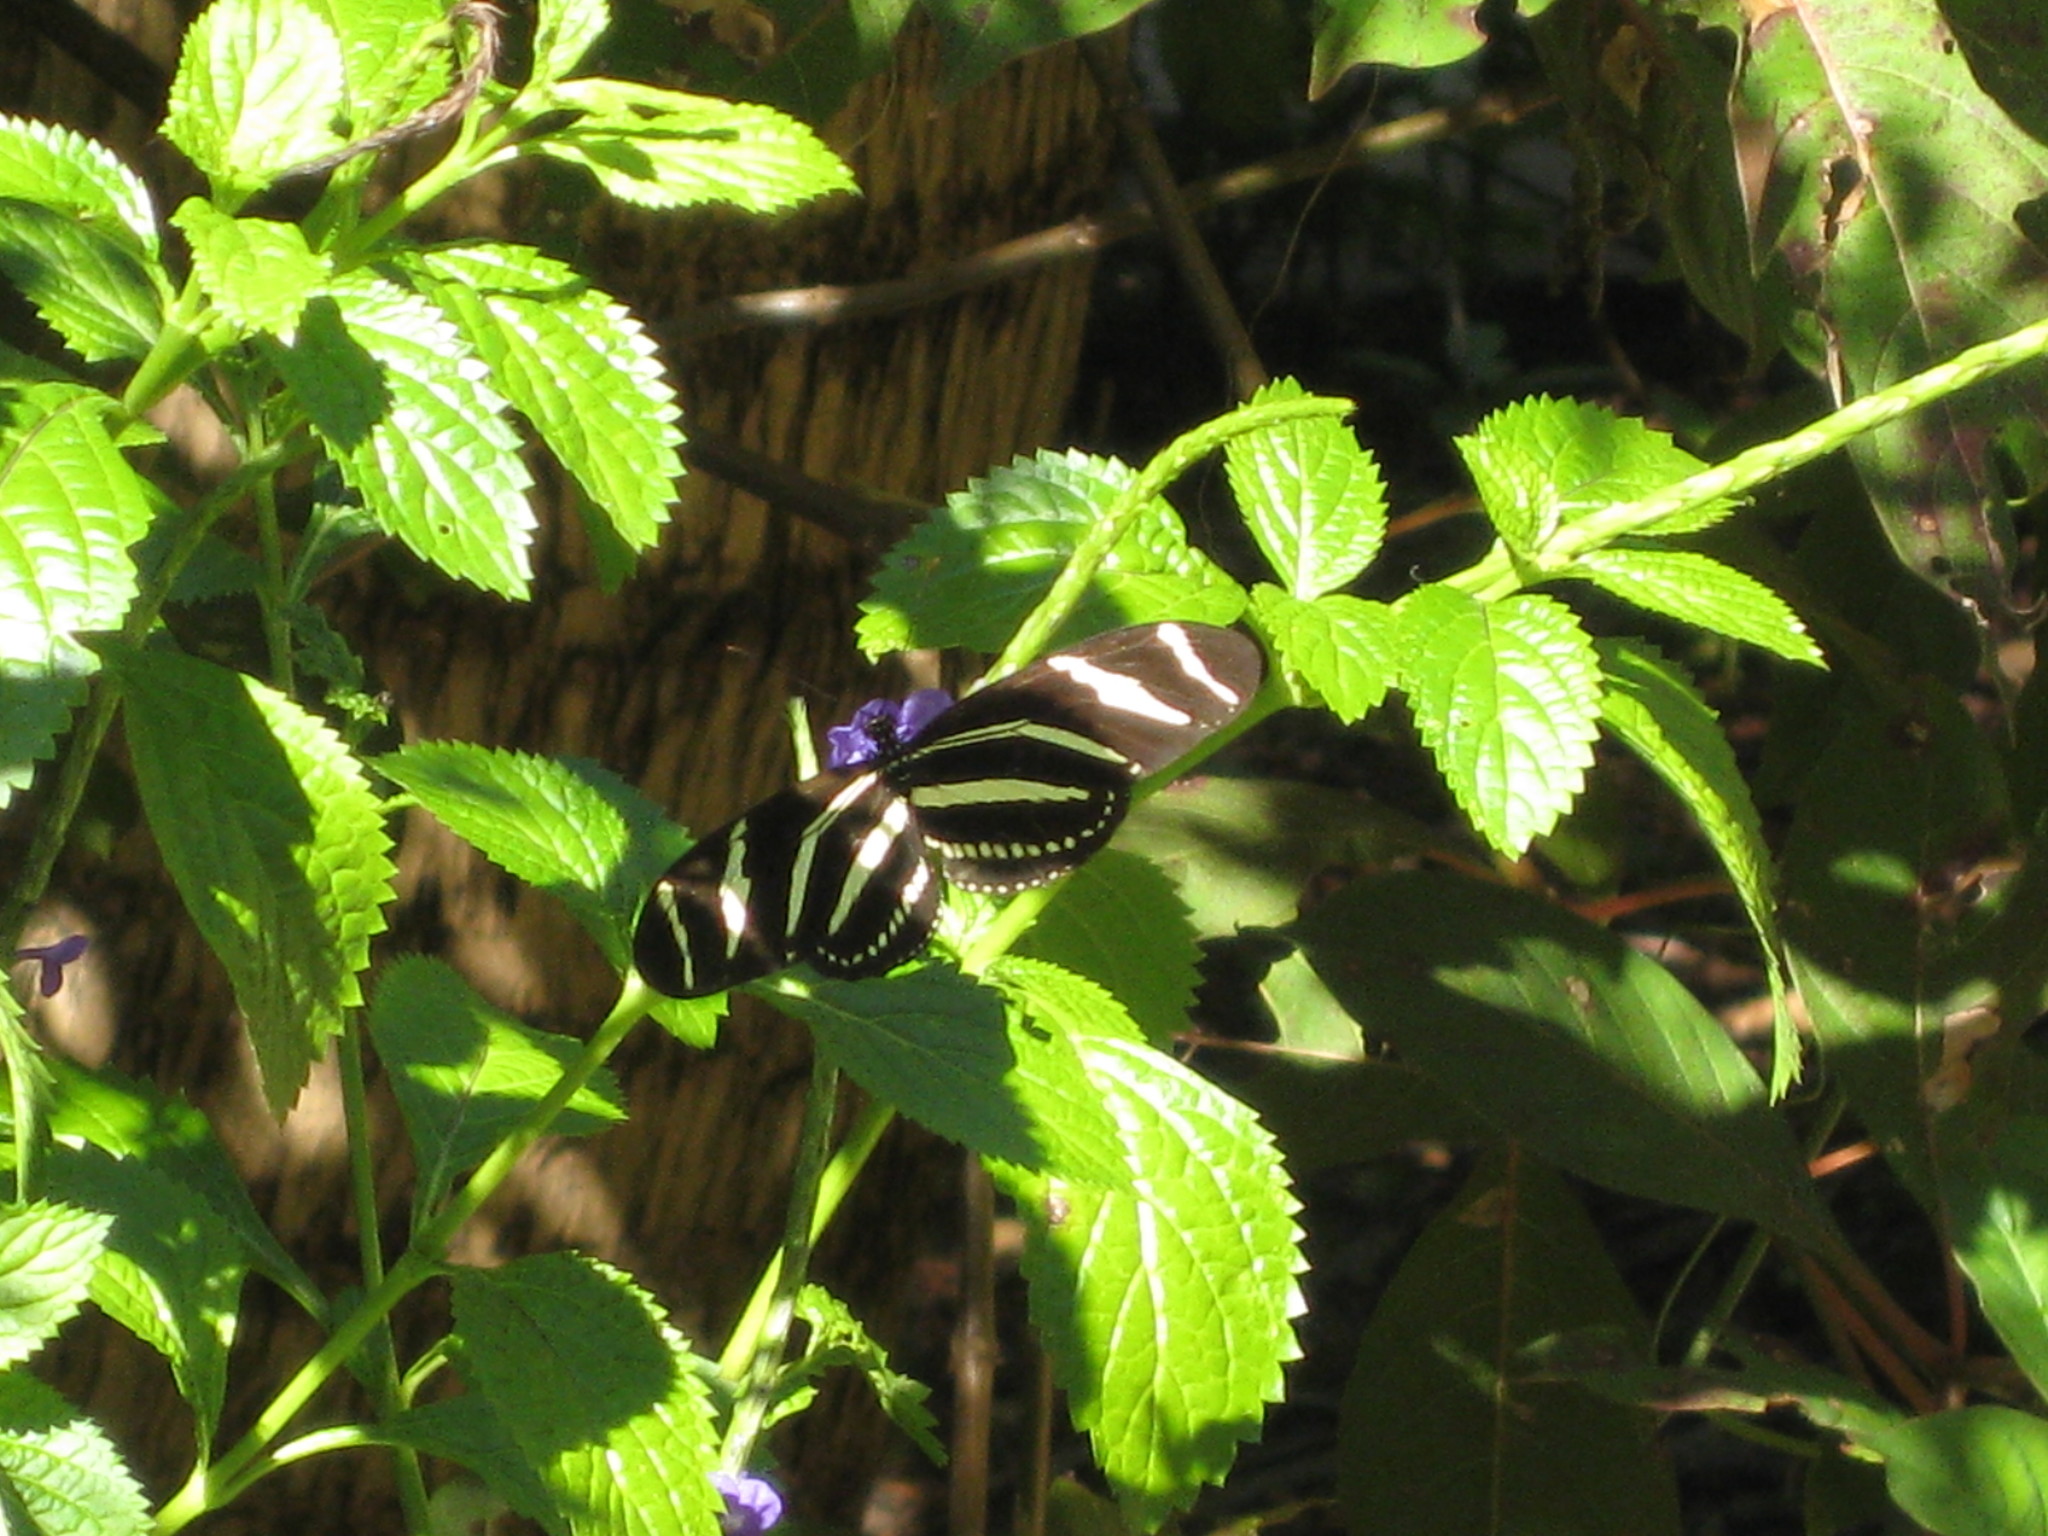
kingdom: Animalia
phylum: Arthropoda
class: Insecta
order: Lepidoptera
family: Nymphalidae
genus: Heliconius
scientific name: Heliconius charithonia
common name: Zebra long wing
